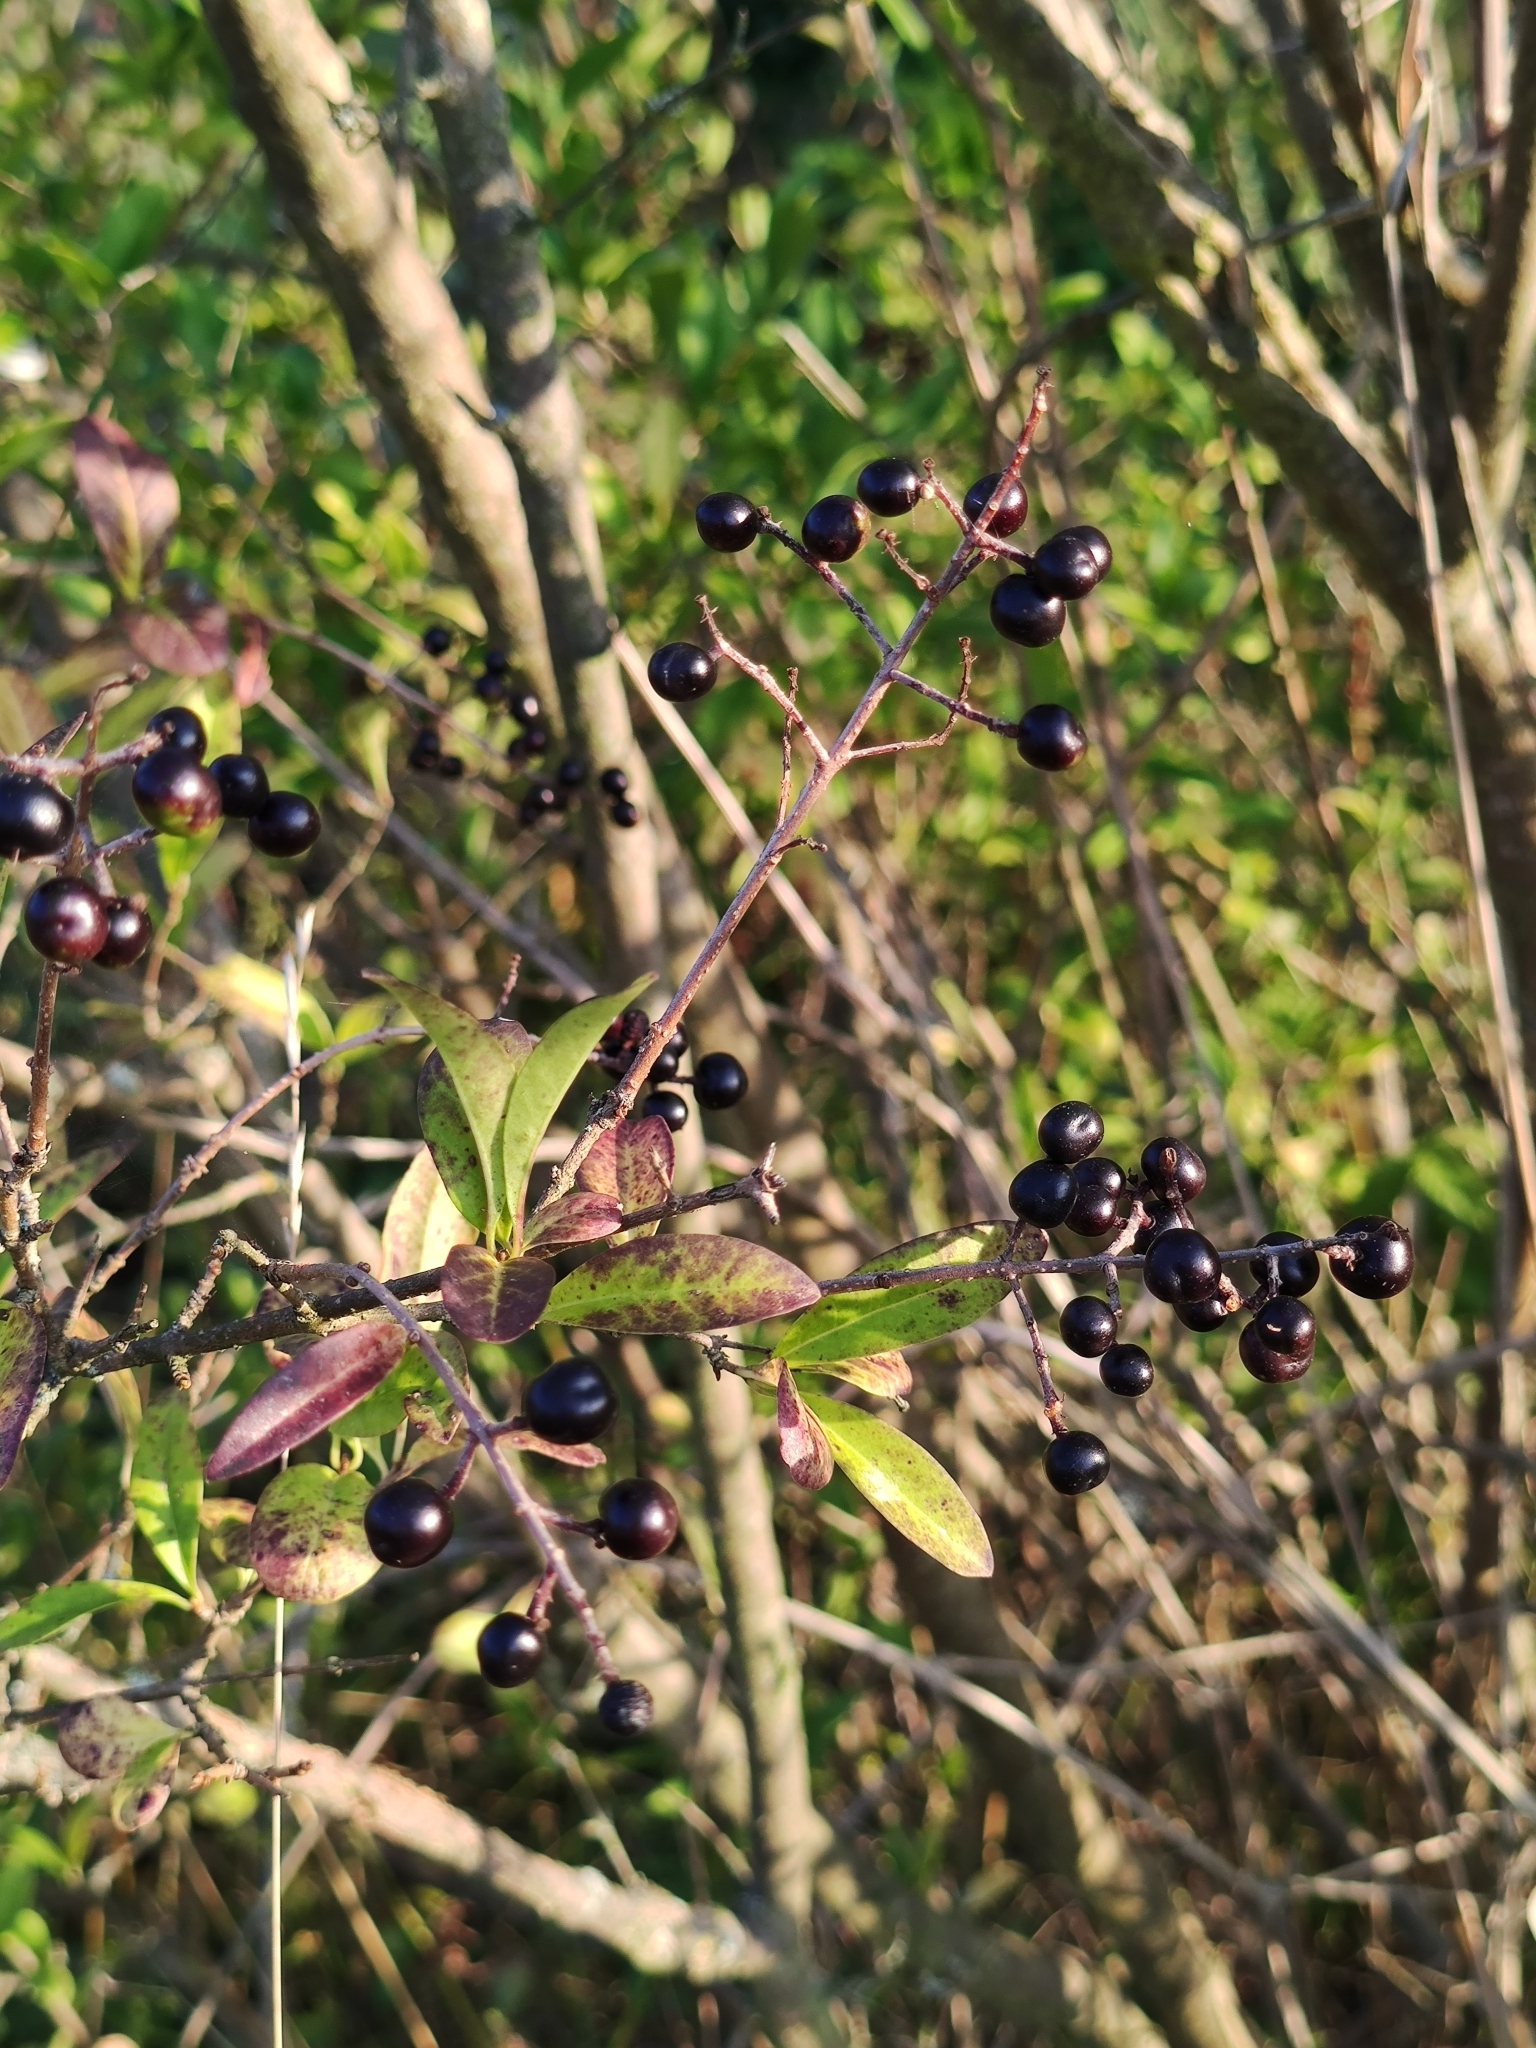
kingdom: Plantae
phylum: Tracheophyta
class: Magnoliopsida
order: Lamiales
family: Oleaceae
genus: Ligustrum
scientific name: Ligustrum vulgare
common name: Wild privet
